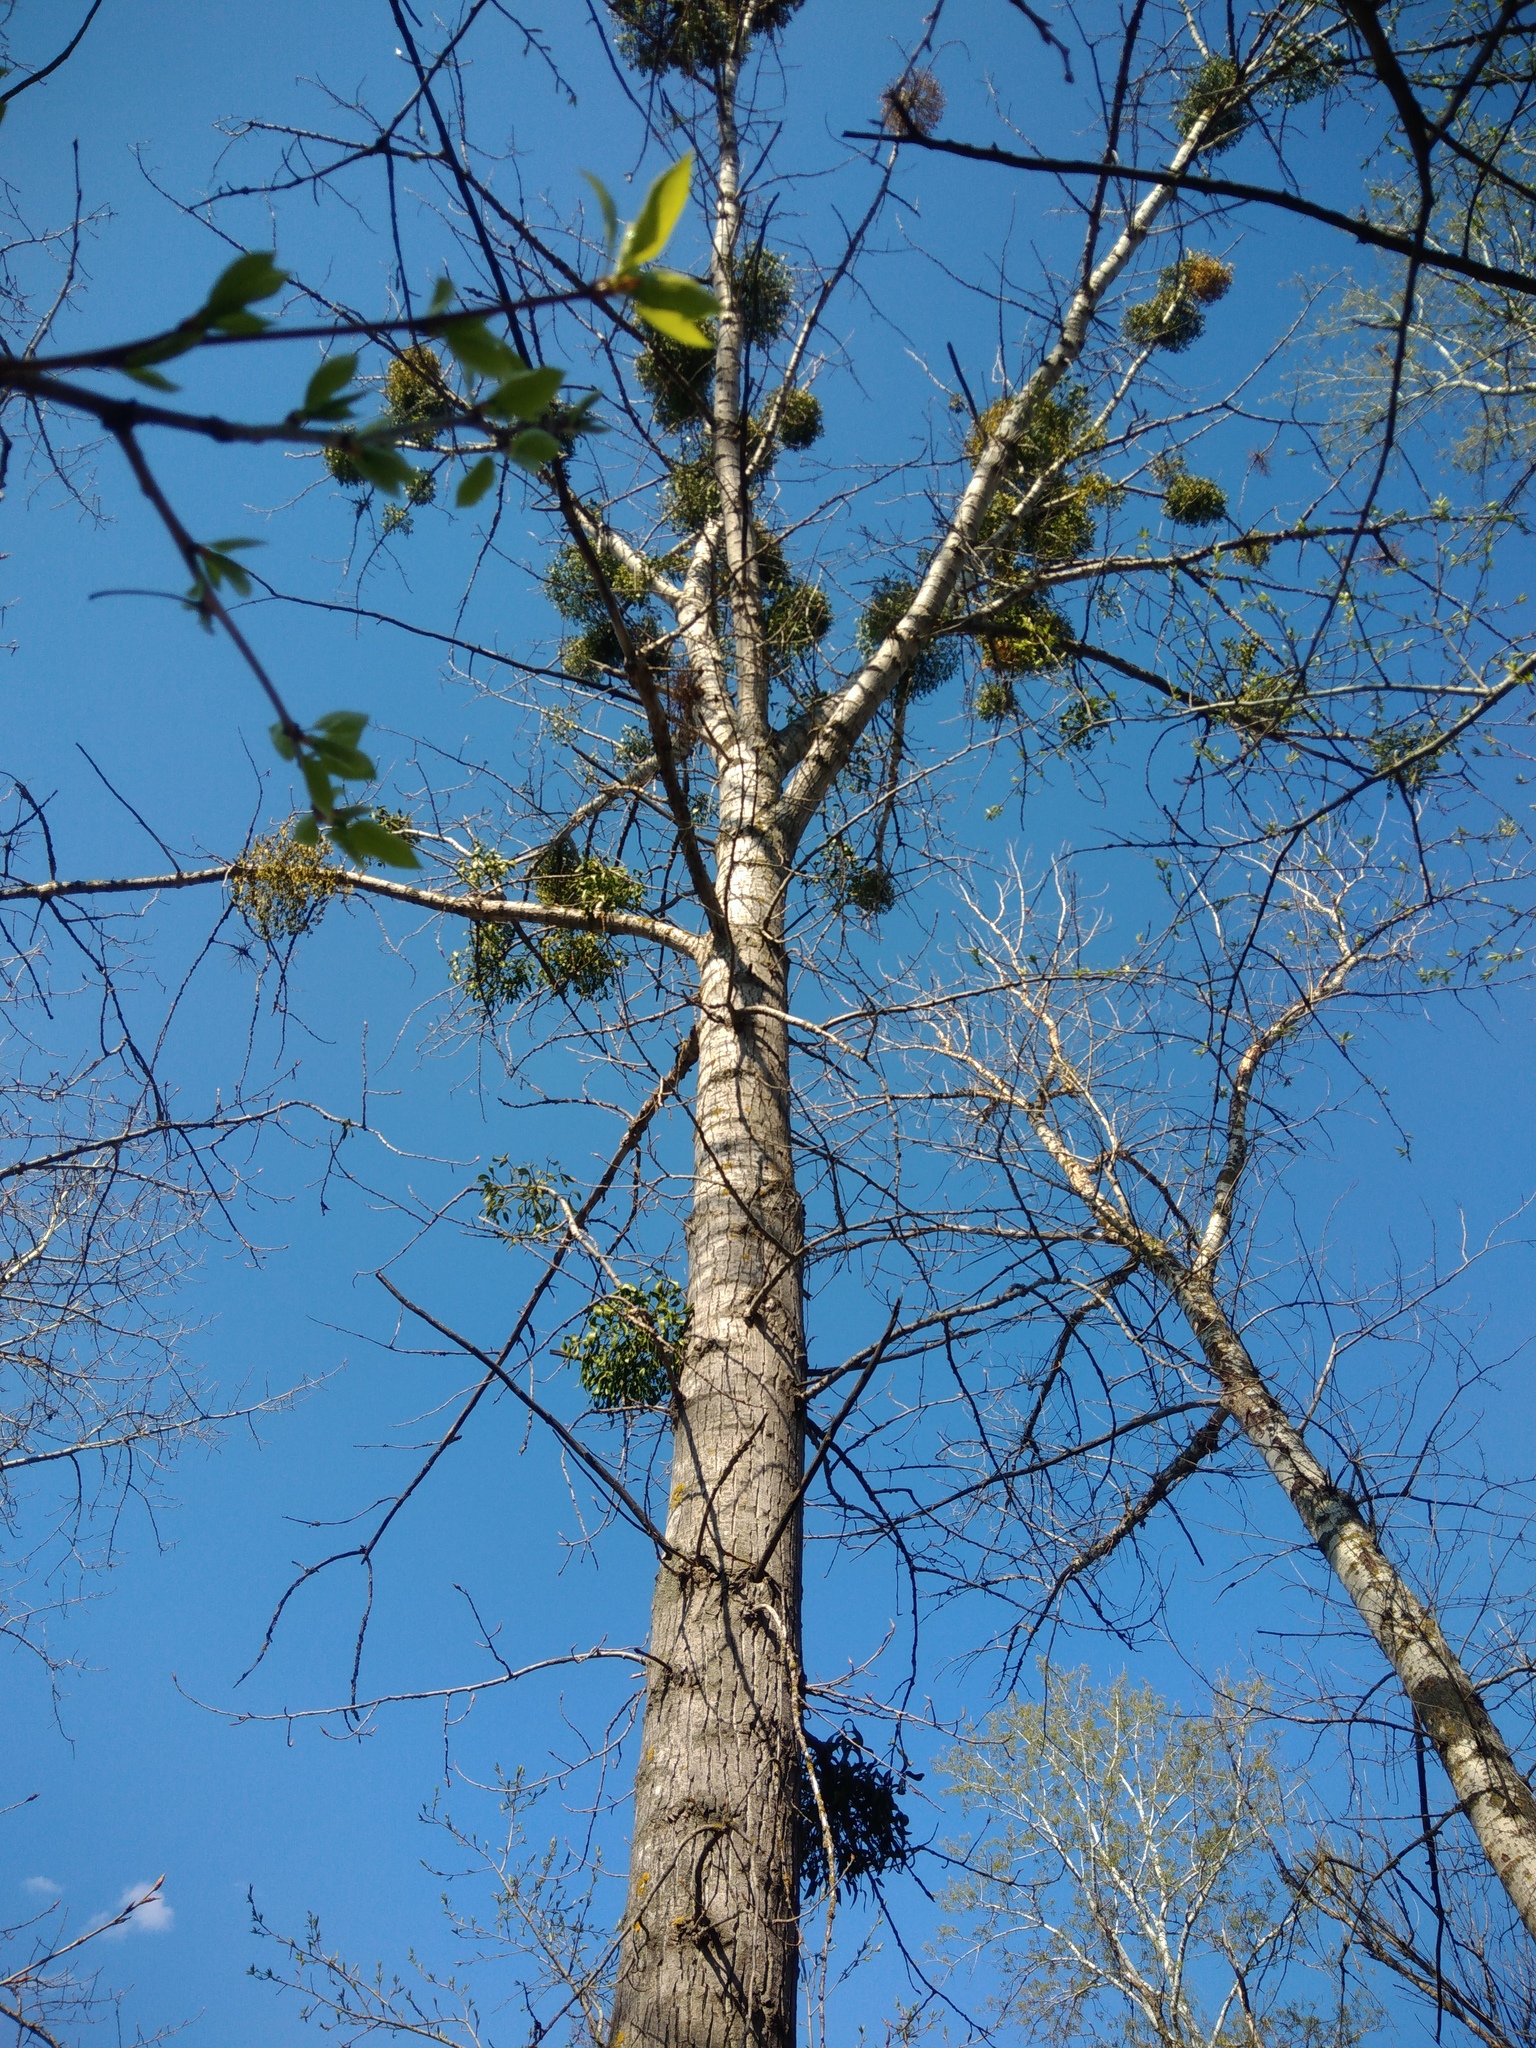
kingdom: Plantae
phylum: Tracheophyta
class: Magnoliopsida
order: Santalales
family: Viscaceae
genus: Viscum
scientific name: Viscum album
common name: Mistletoe
